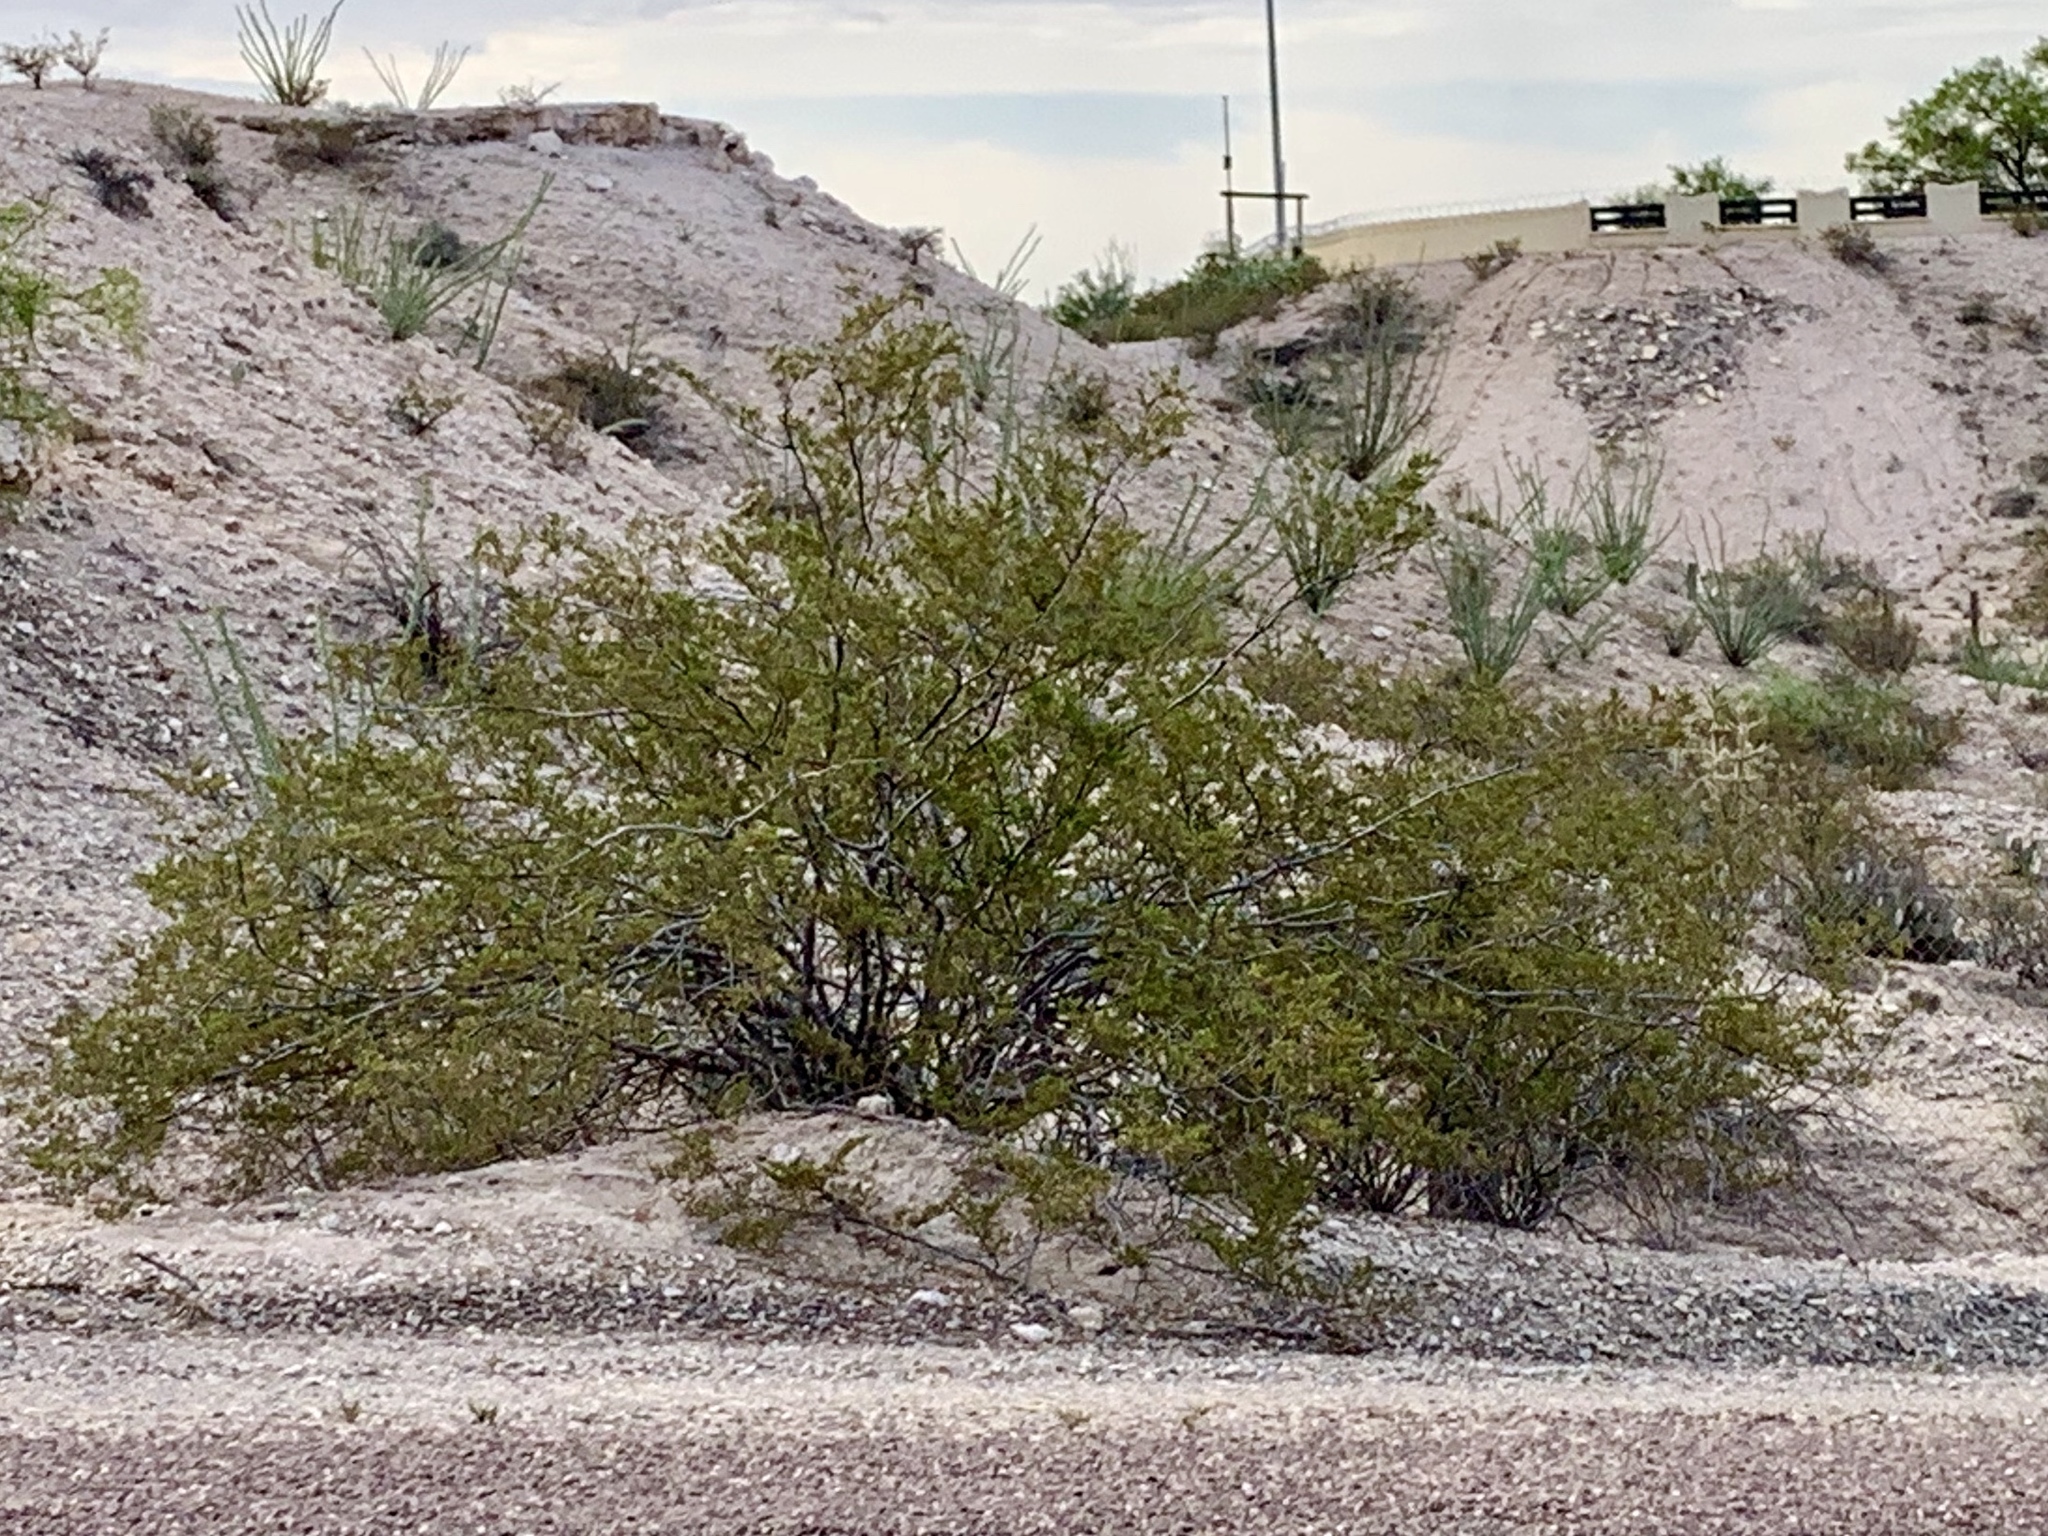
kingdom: Plantae
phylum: Tracheophyta
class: Magnoliopsida
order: Zygophyllales
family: Zygophyllaceae
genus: Larrea
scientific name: Larrea tridentata
